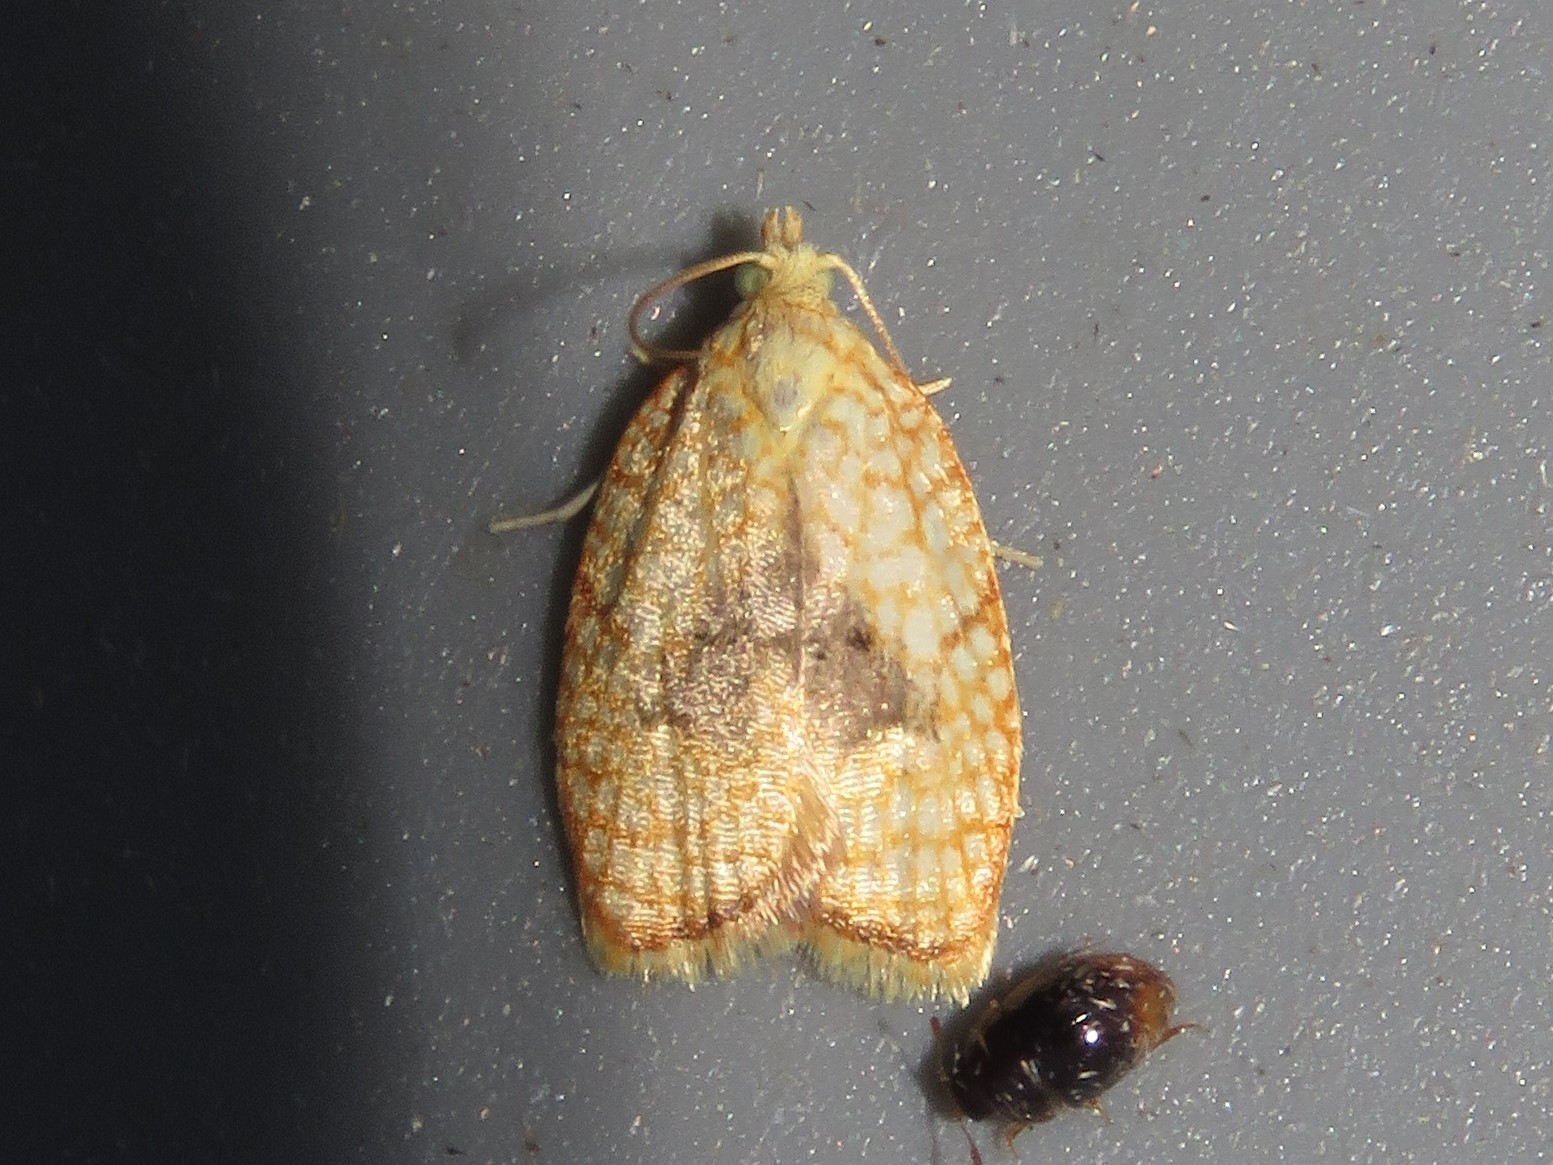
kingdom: Animalia
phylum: Arthropoda
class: Insecta
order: Lepidoptera
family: Tortricidae
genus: Acleris
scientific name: Acleris forsskaleana
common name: Maple button
